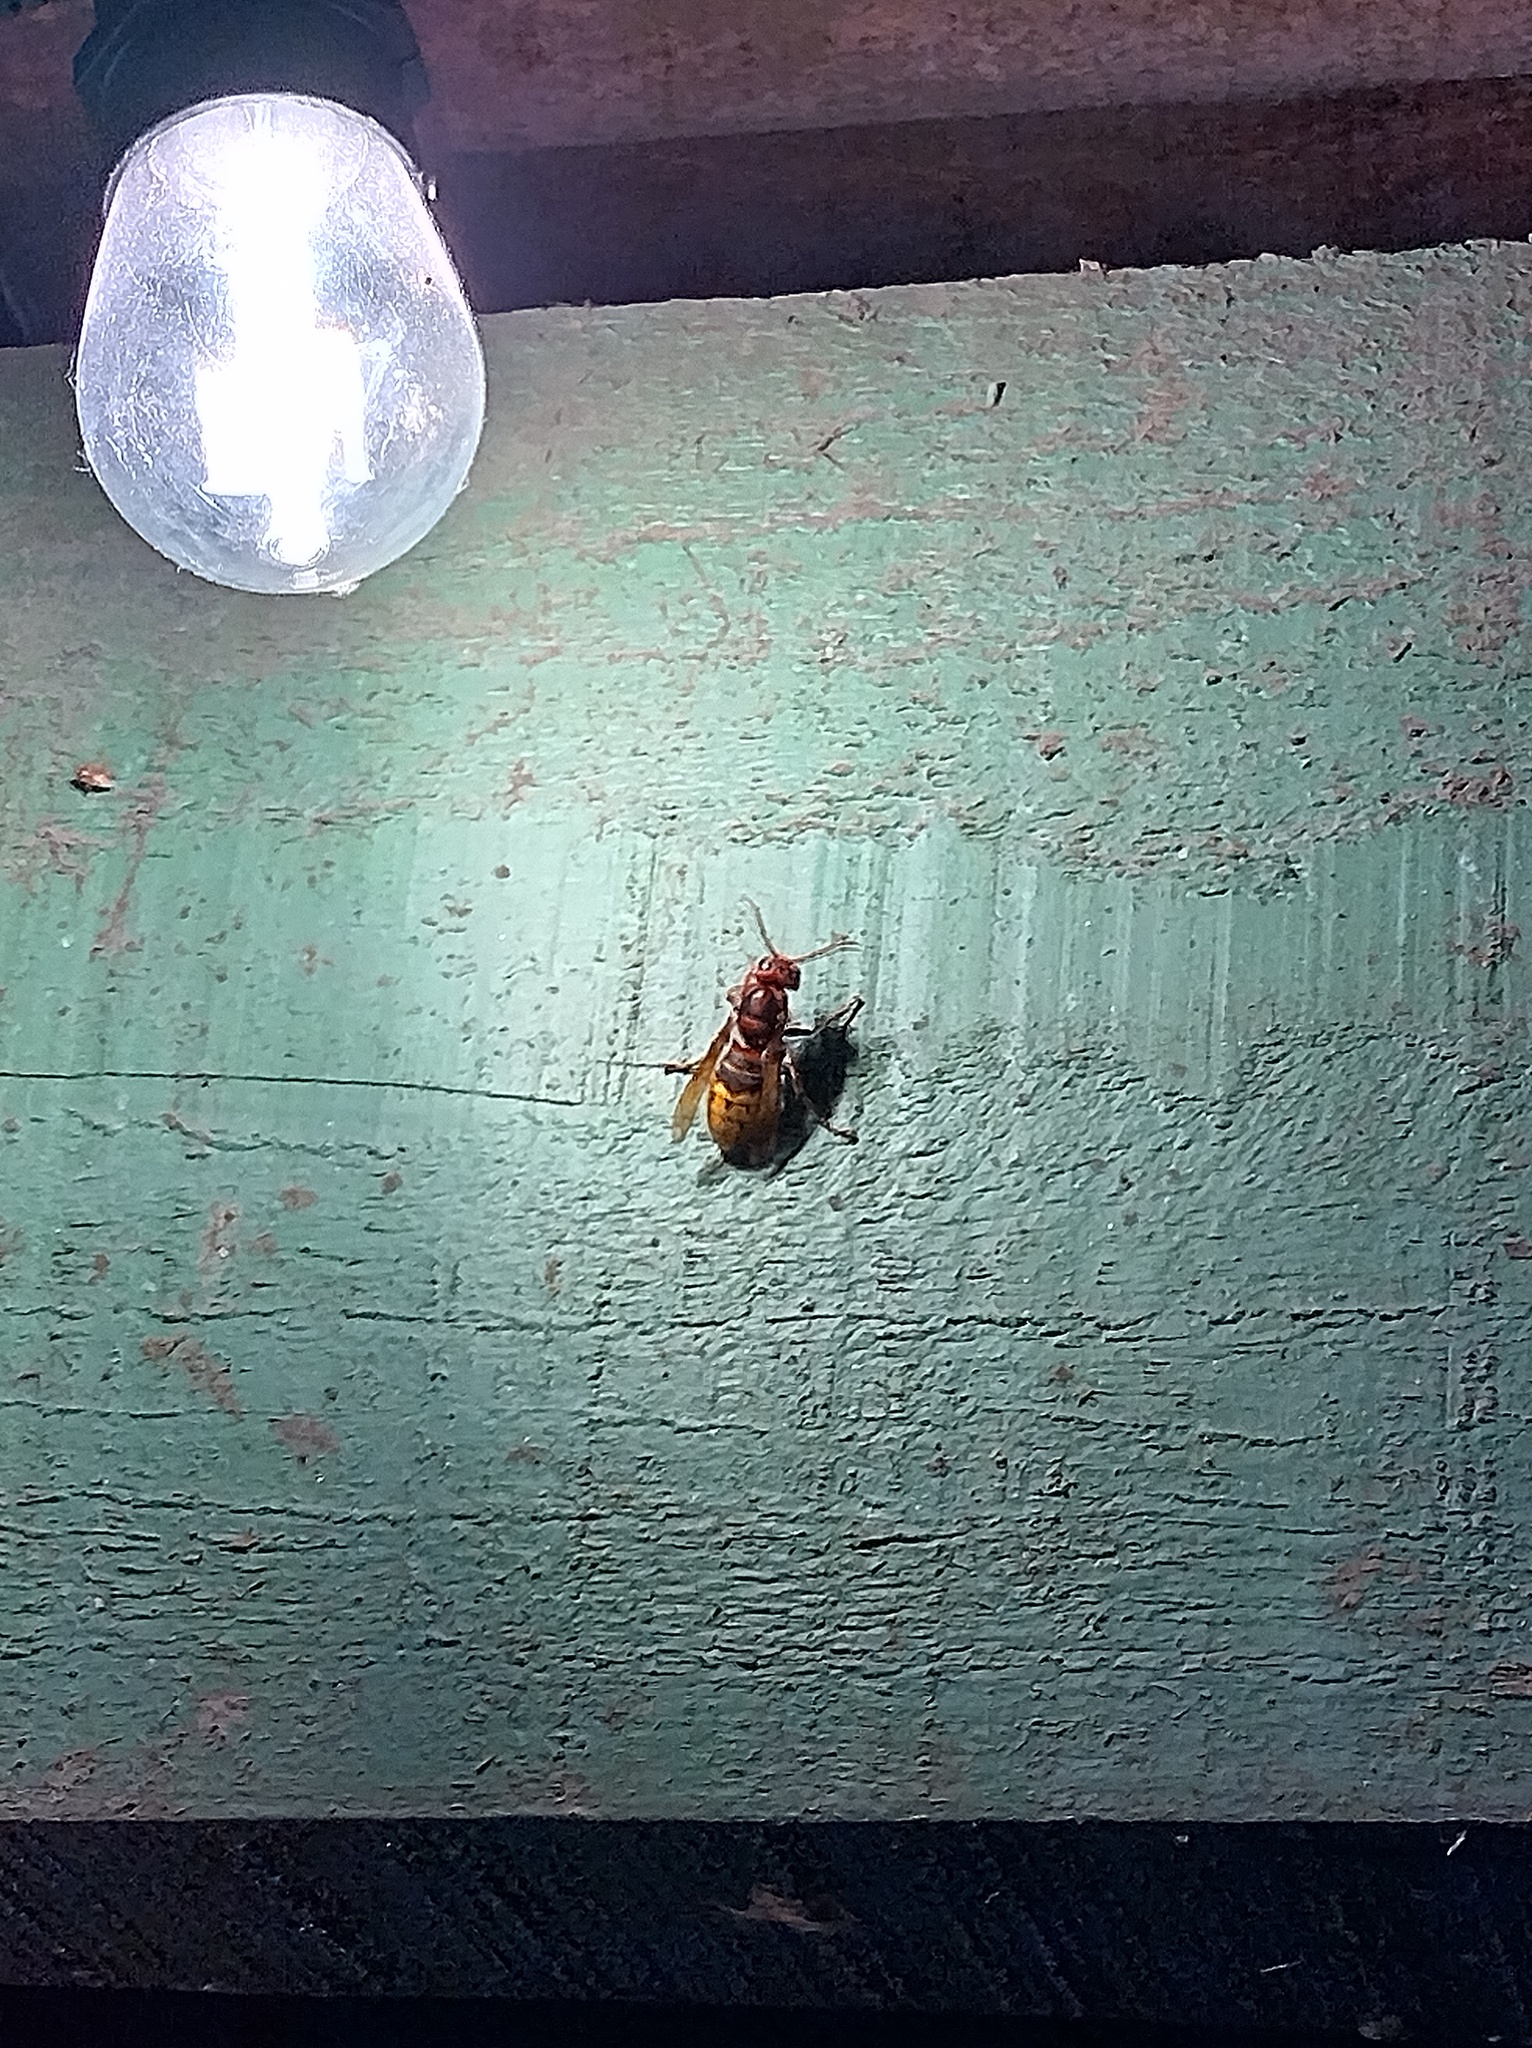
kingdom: Animalia
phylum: Arthropoda
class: Insecta
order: Hymenoptera
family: Vespidae
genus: Vespa
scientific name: Vespa crabro
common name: Hornet
